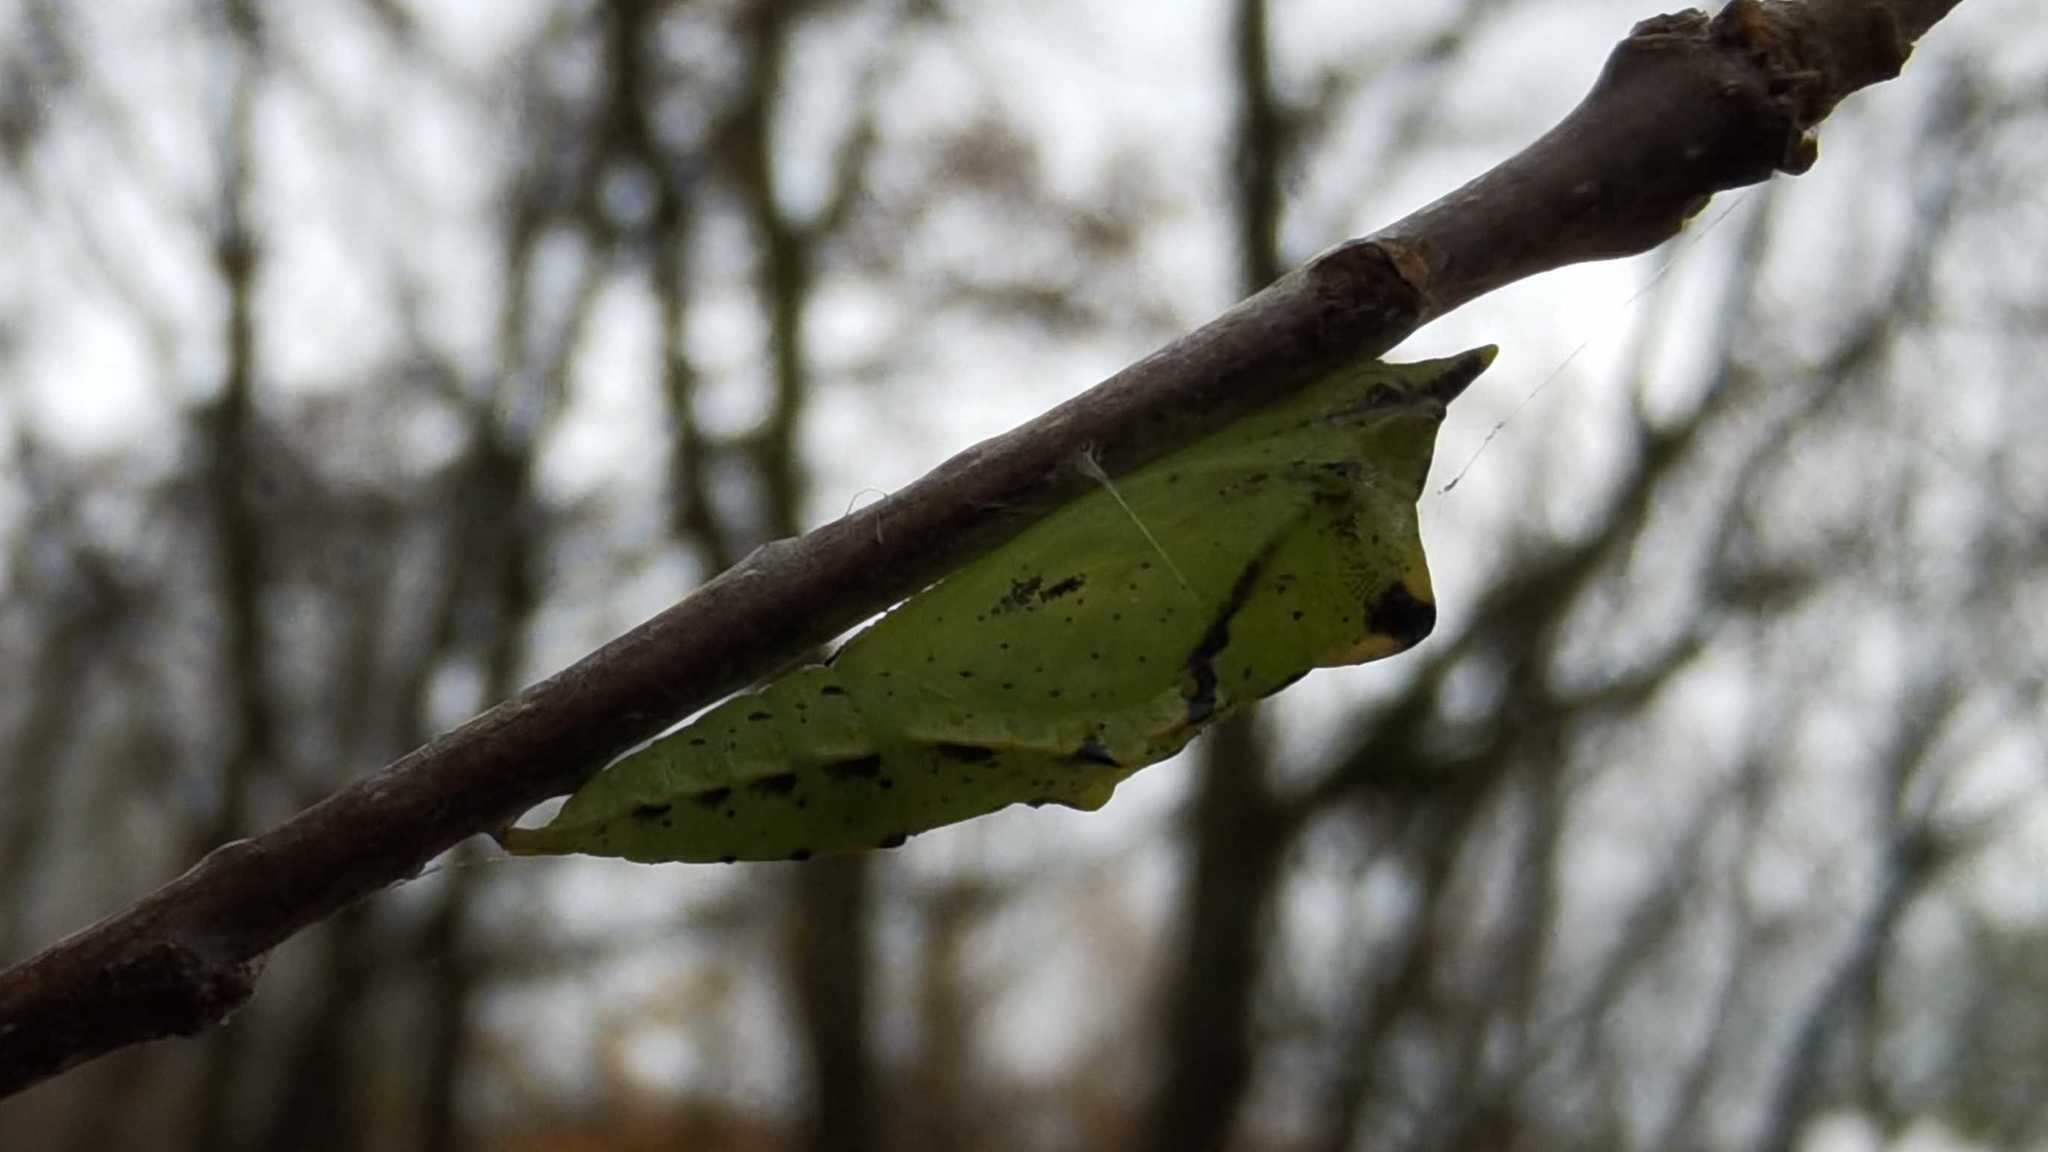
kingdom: Animalia
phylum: Arthropoda
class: Insecta
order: Lepidoptera
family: Pieridae
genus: Pieris
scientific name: Pieris napi
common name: Green-veined white
